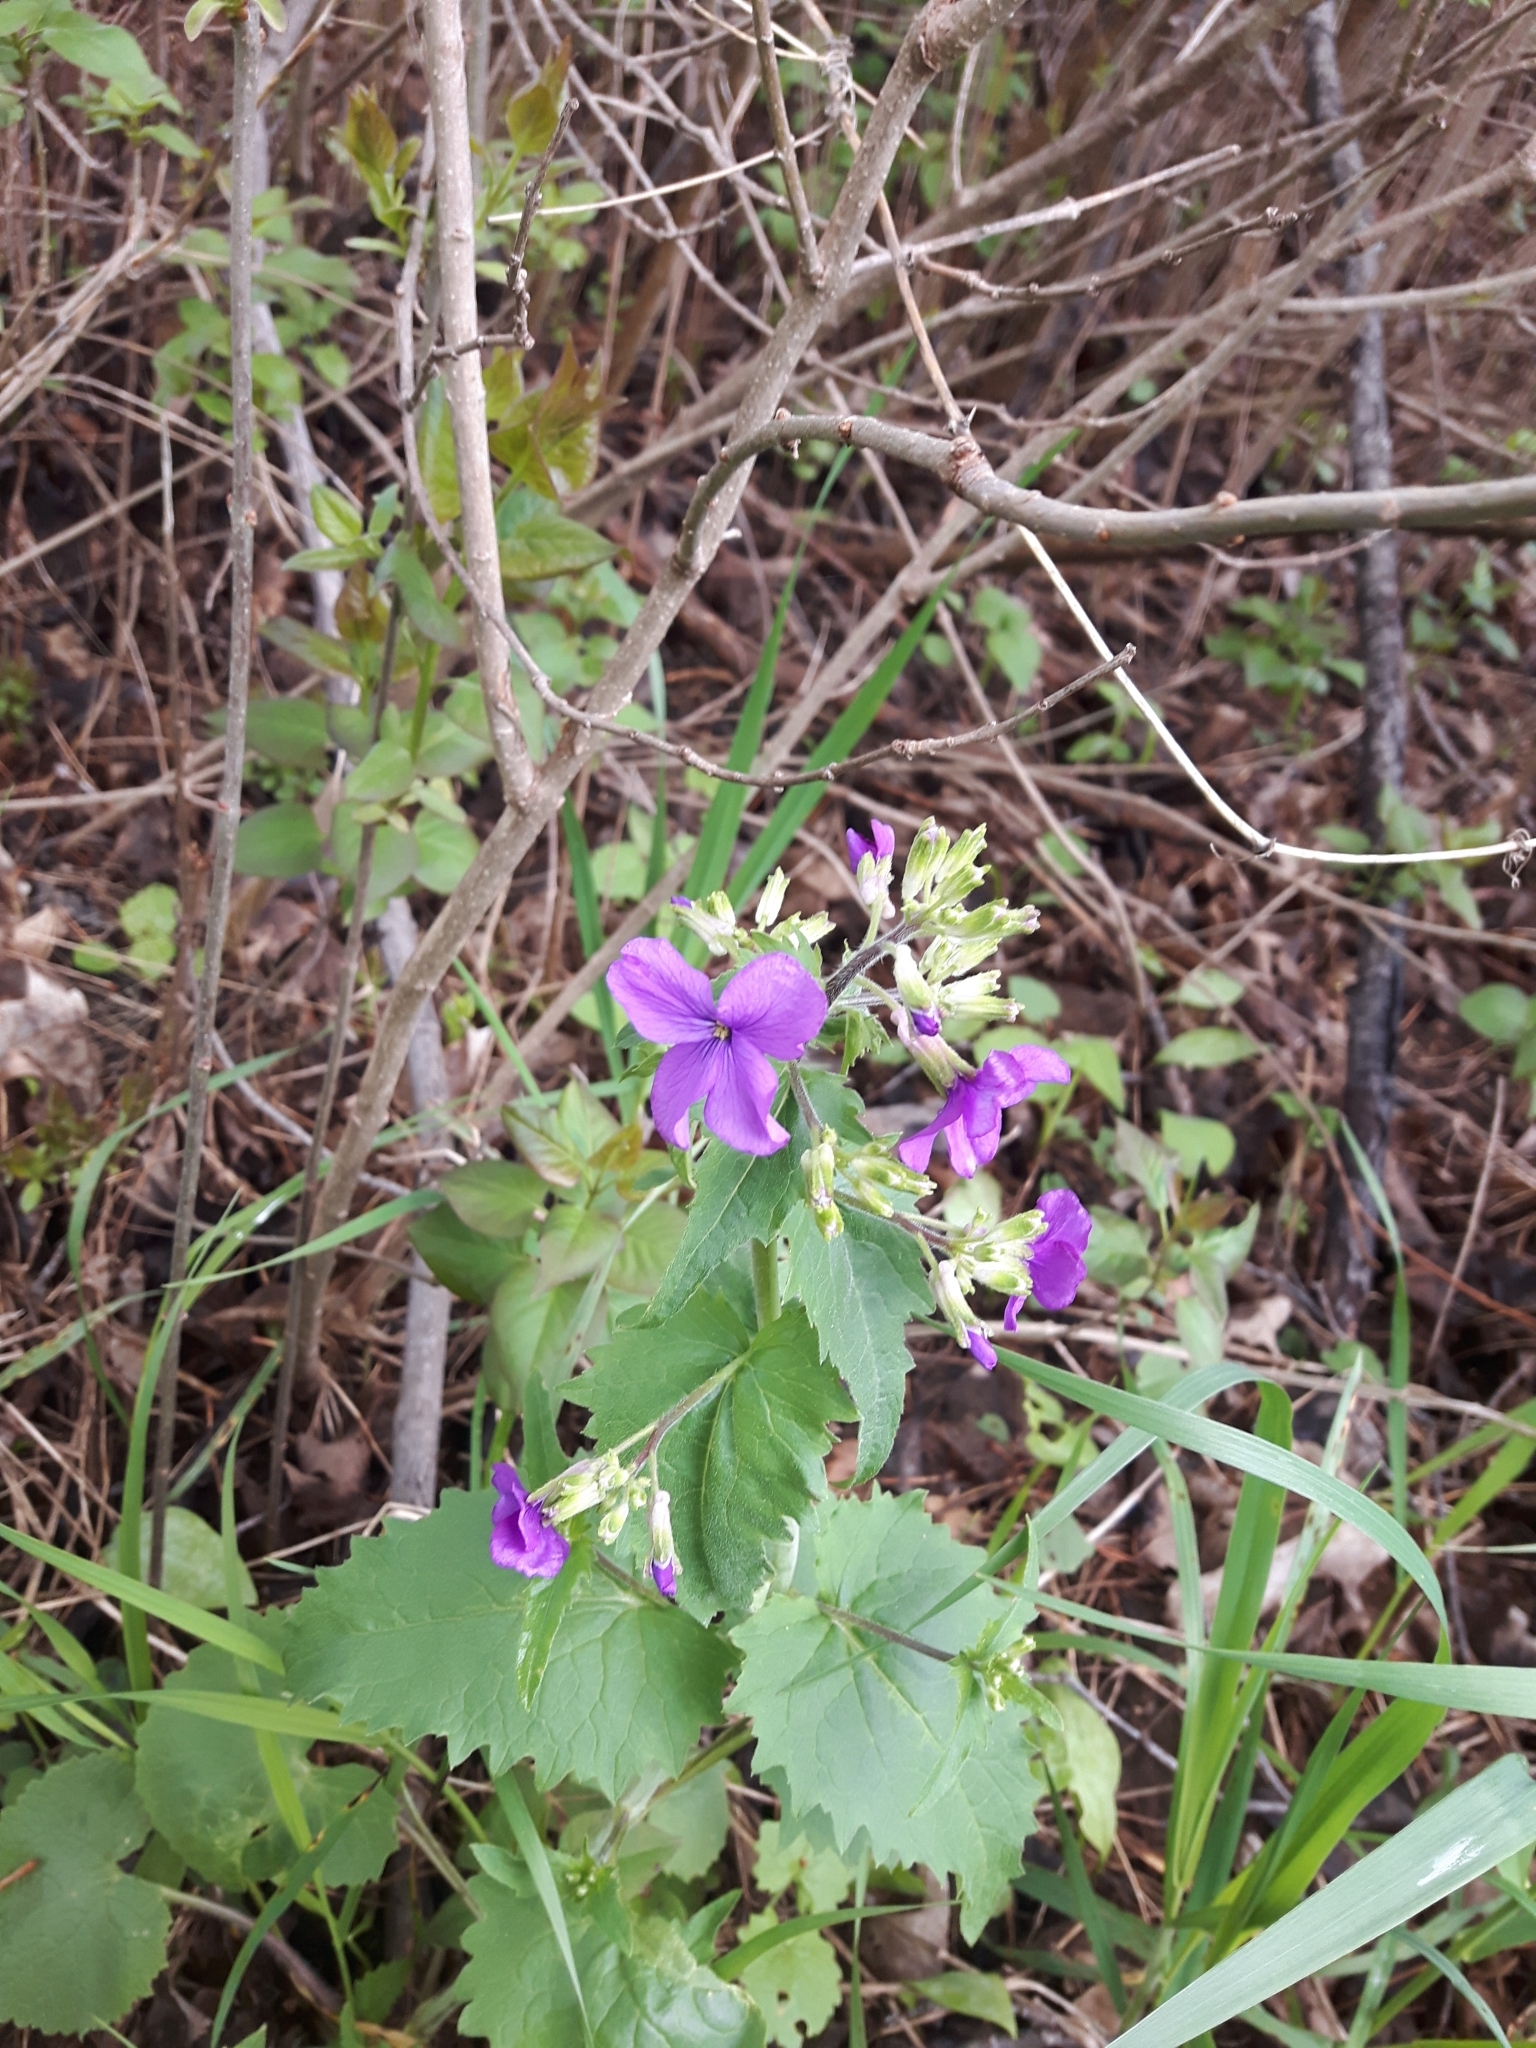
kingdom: Plantae
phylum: Tracheophyta
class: Magnoliopsida
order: Brassicales
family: Brassicaceae
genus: Lunaria
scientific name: Lunaria annua
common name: Honesty
